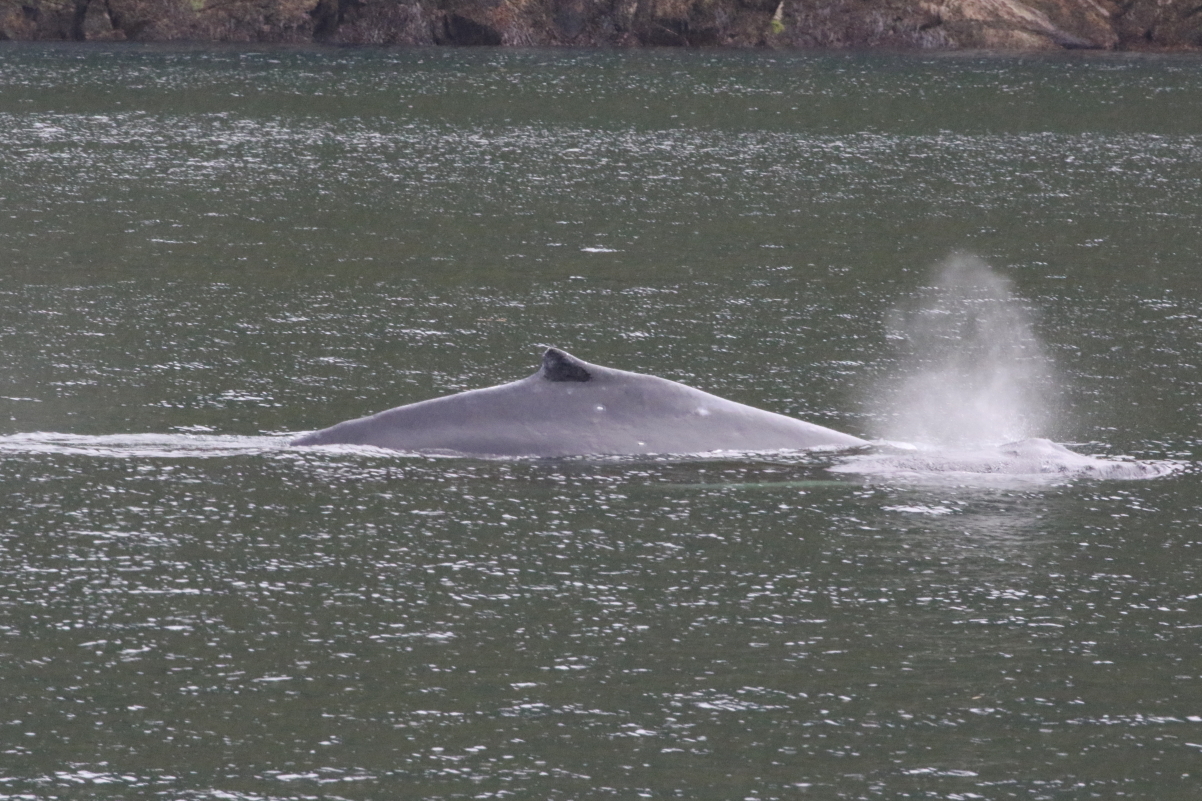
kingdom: Animalia
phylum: Chordata
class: Mammalia
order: Cetacea
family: Balaenopteridae
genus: Megaptera
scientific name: Megaptera novaeangliae
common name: Humpback whale
